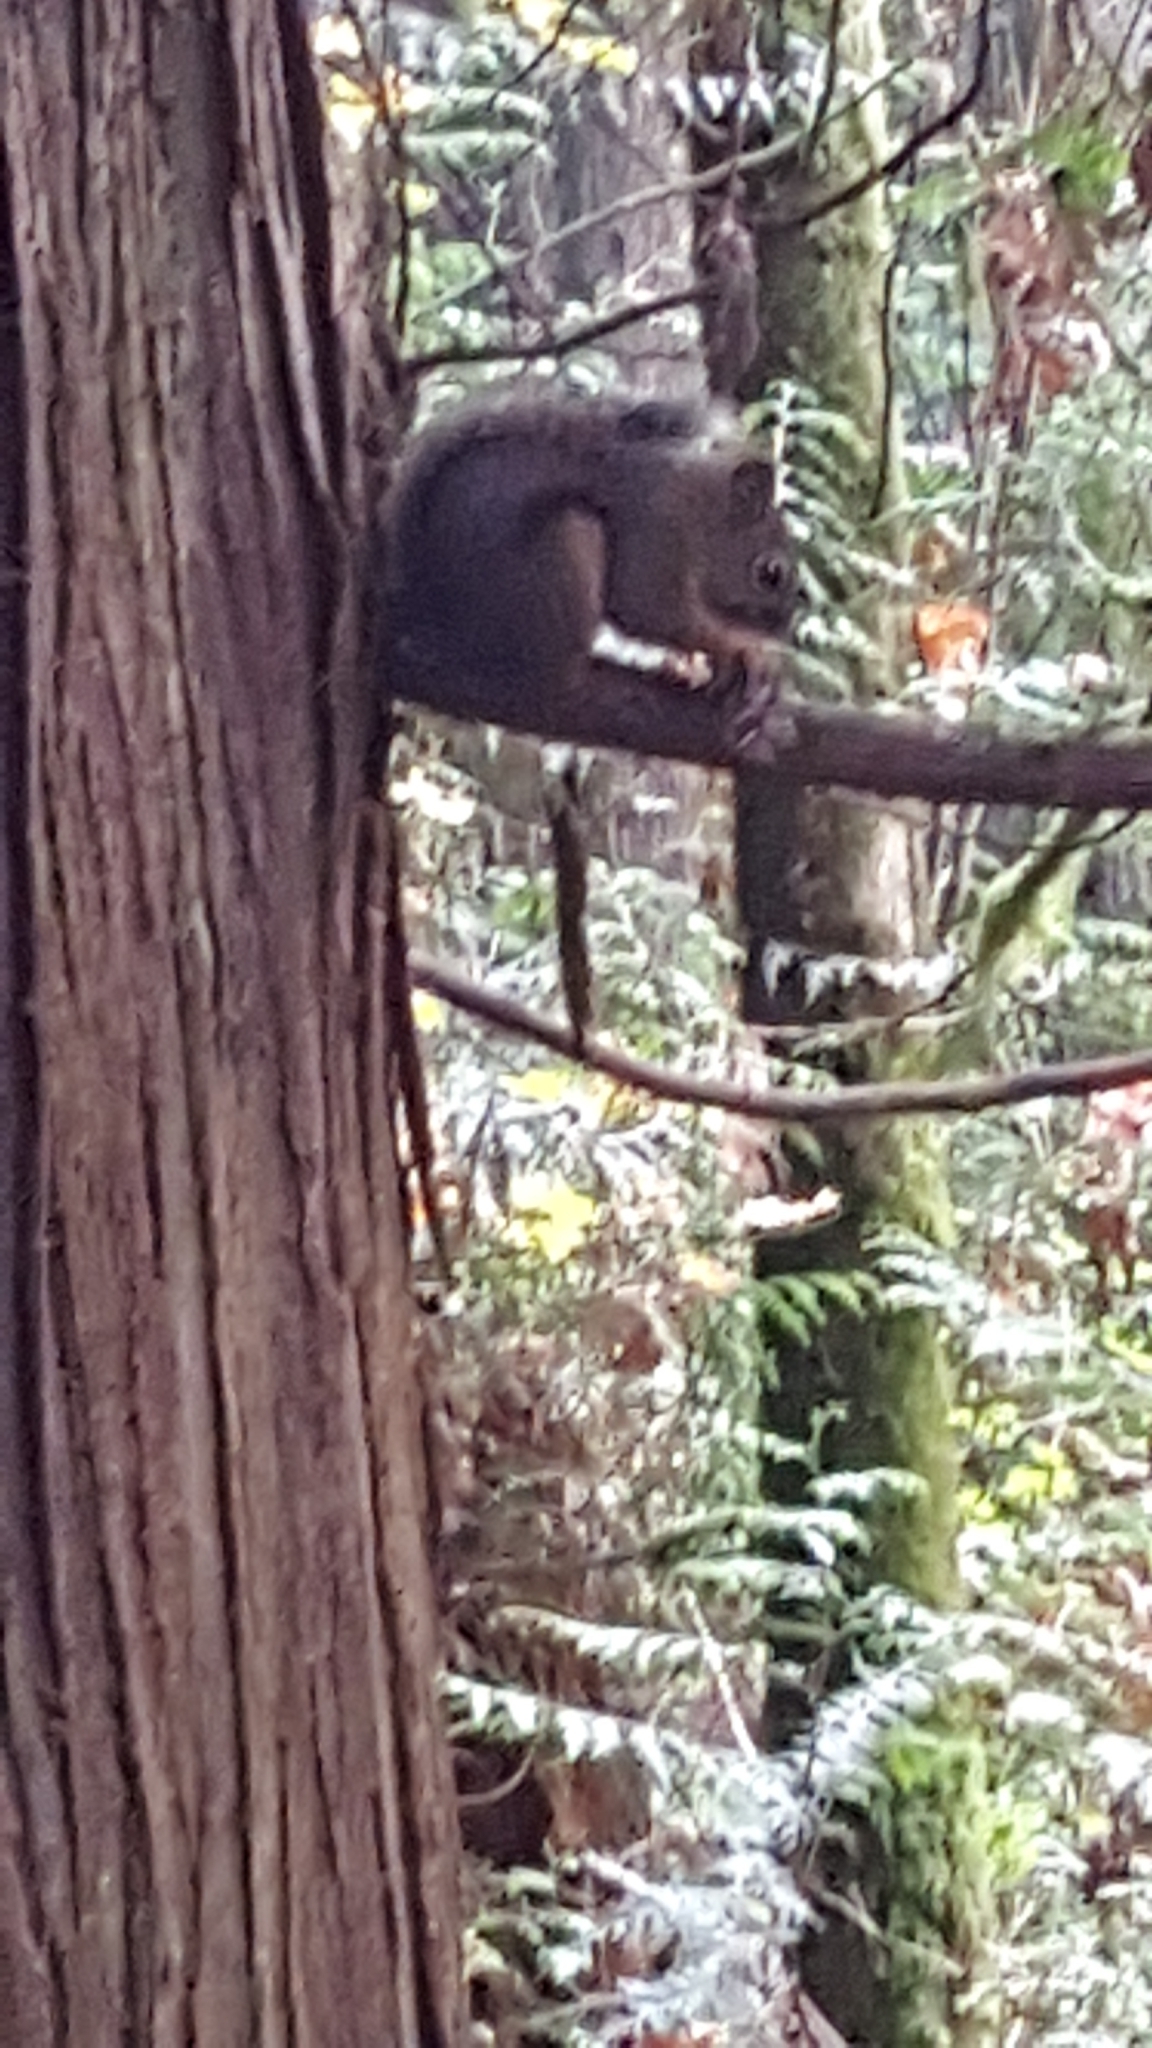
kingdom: Animalia
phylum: Chordata
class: Mammalia
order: Rodentia
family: Sciuridae
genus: Sciurus
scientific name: Sciurus carolinensis
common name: Eastern gray squirrel
